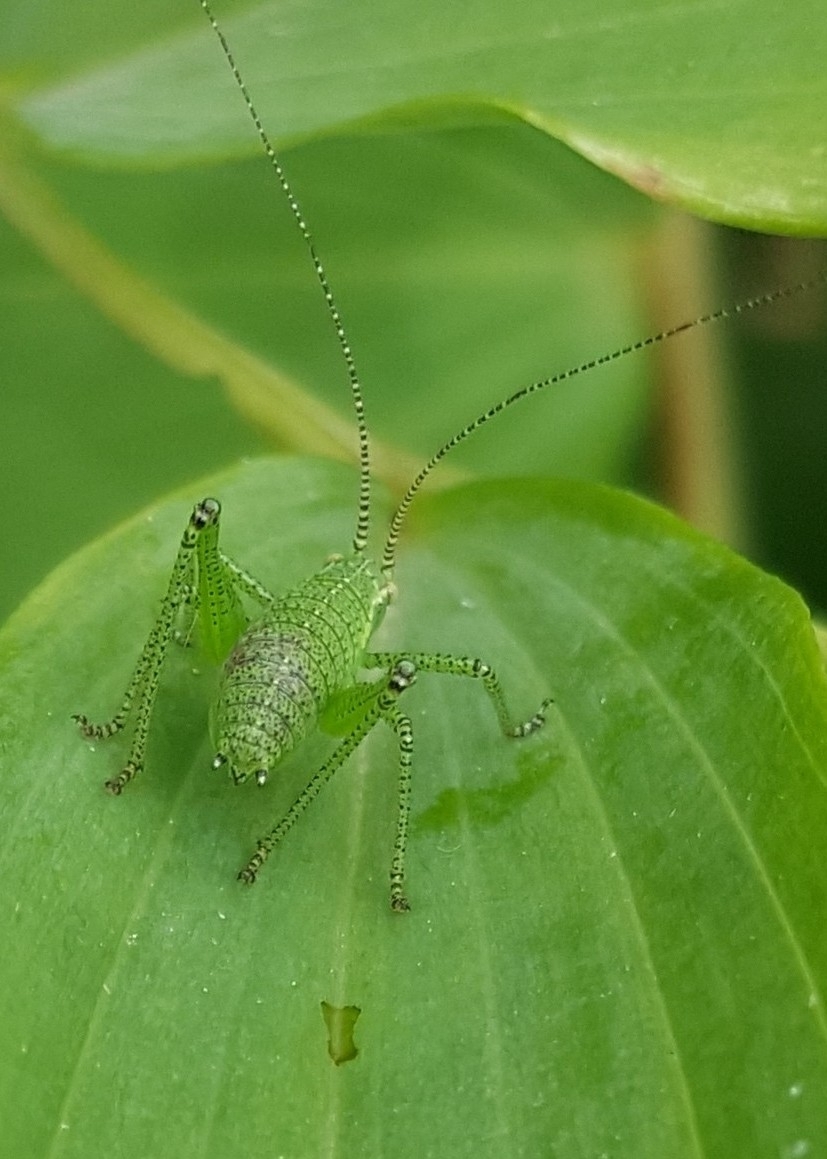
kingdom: Animalia
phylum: Arthropoda
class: Insecta
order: Orthoptera
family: Tettigoniidae
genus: Leptophyes
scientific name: Leptophyes punctatissima
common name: Speckled bush-cricket
